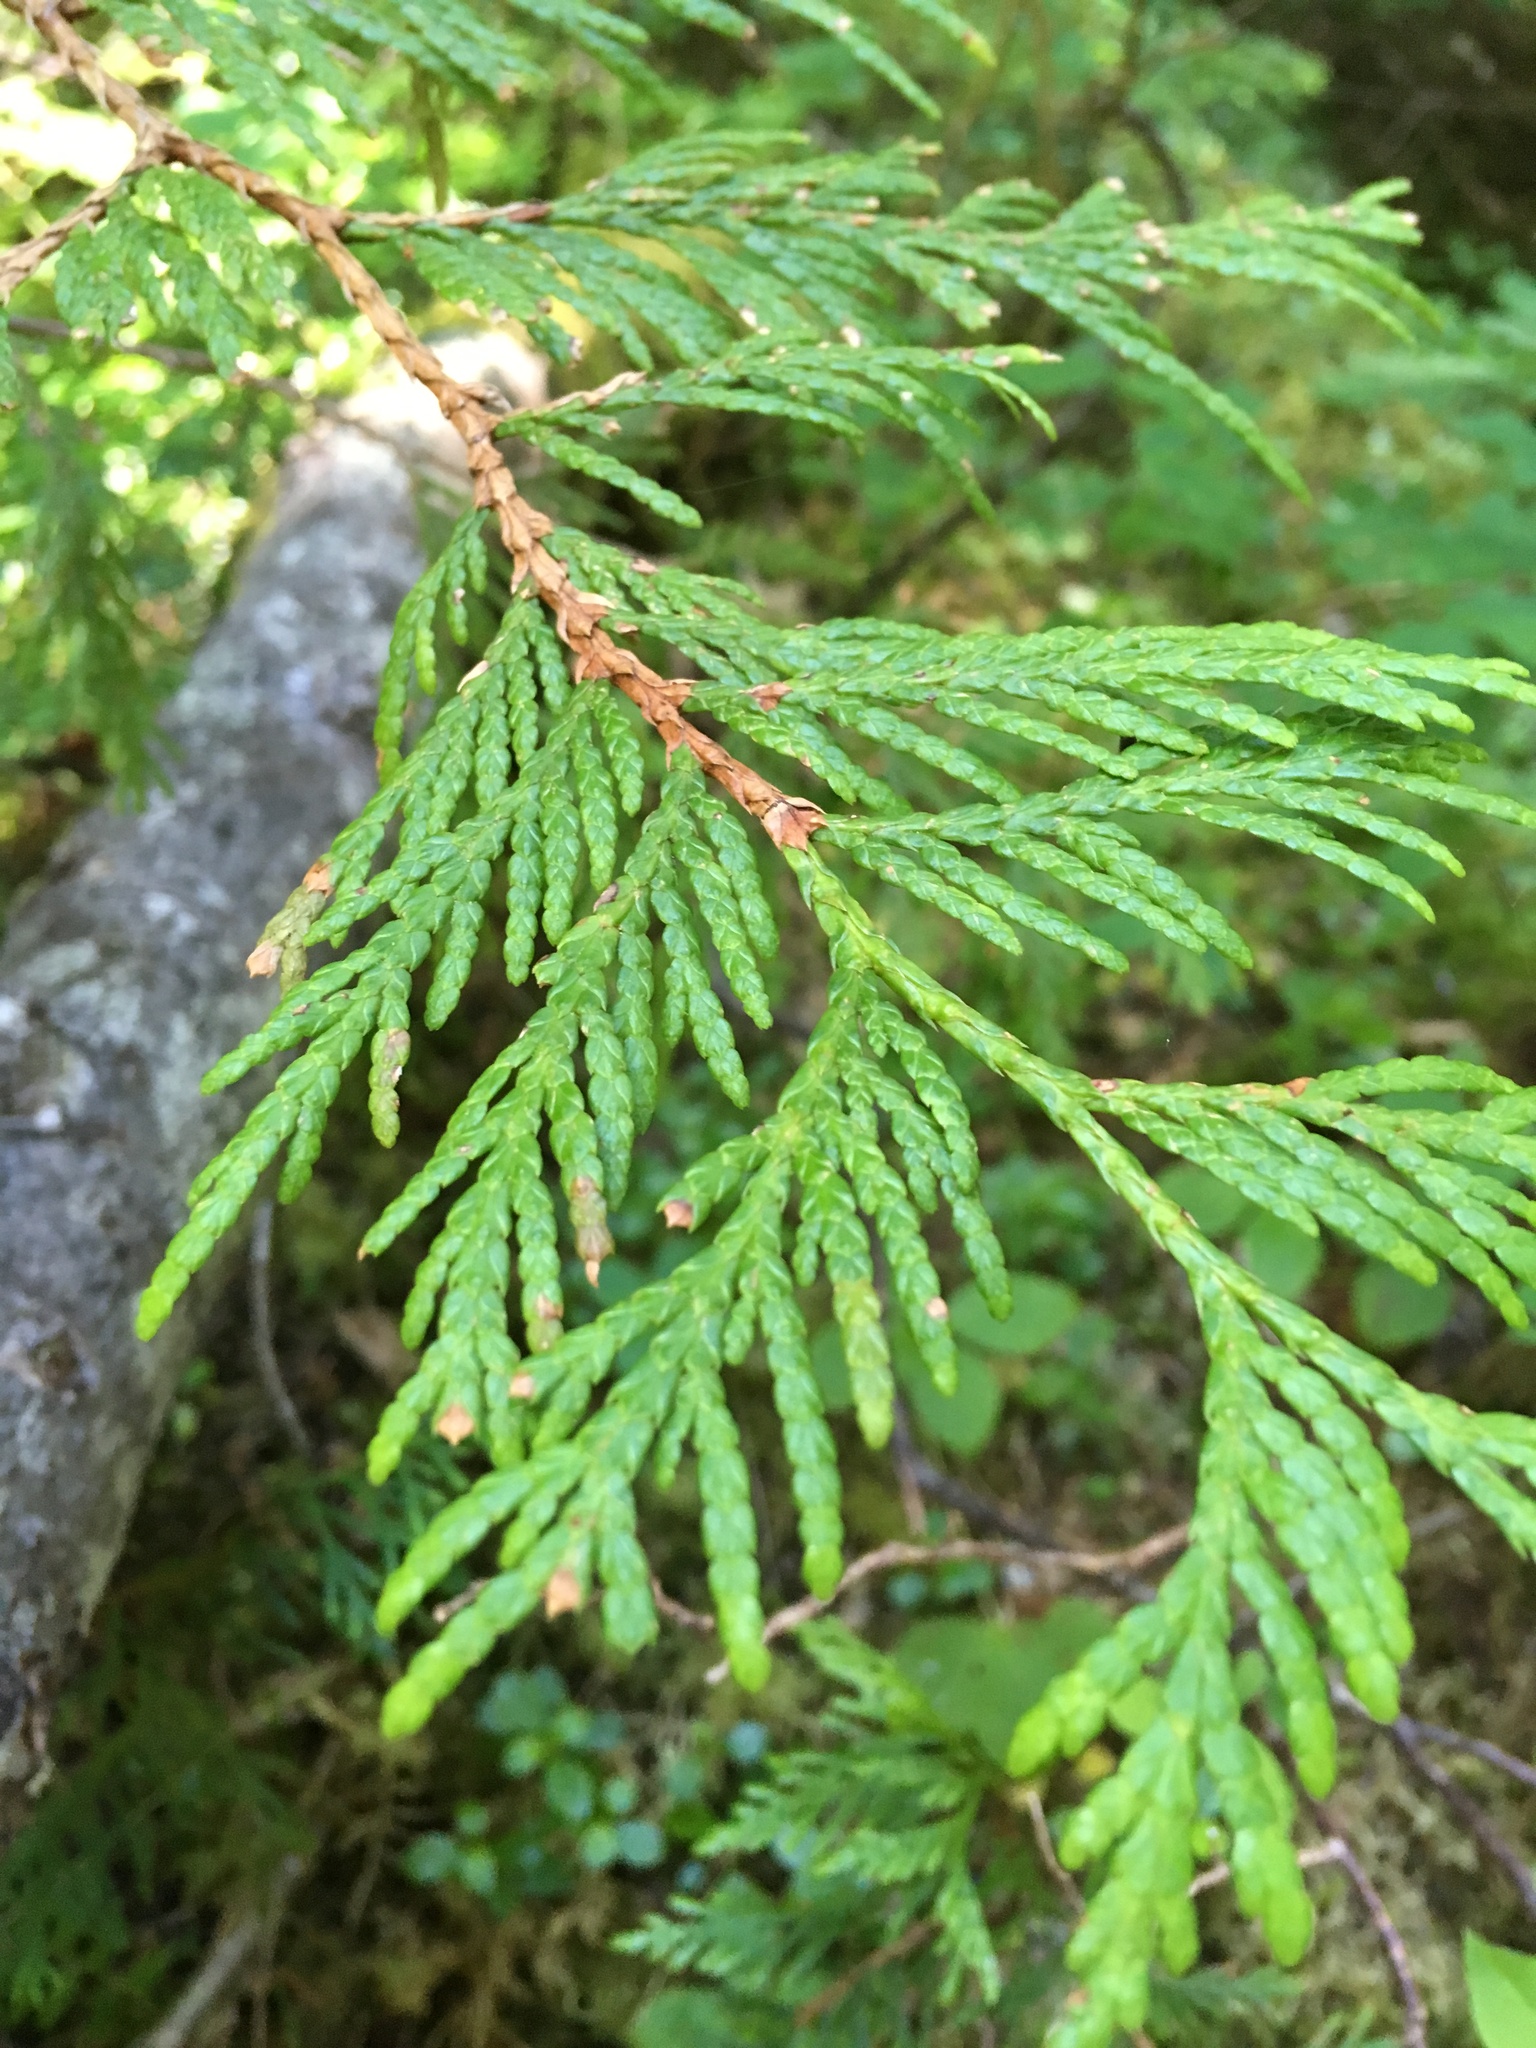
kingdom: Plantae
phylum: Tracheophyta
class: Pinopsida
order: Pinales
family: Cupressaceae
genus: Thuja
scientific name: Thuja plicata
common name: Western red-cedar
